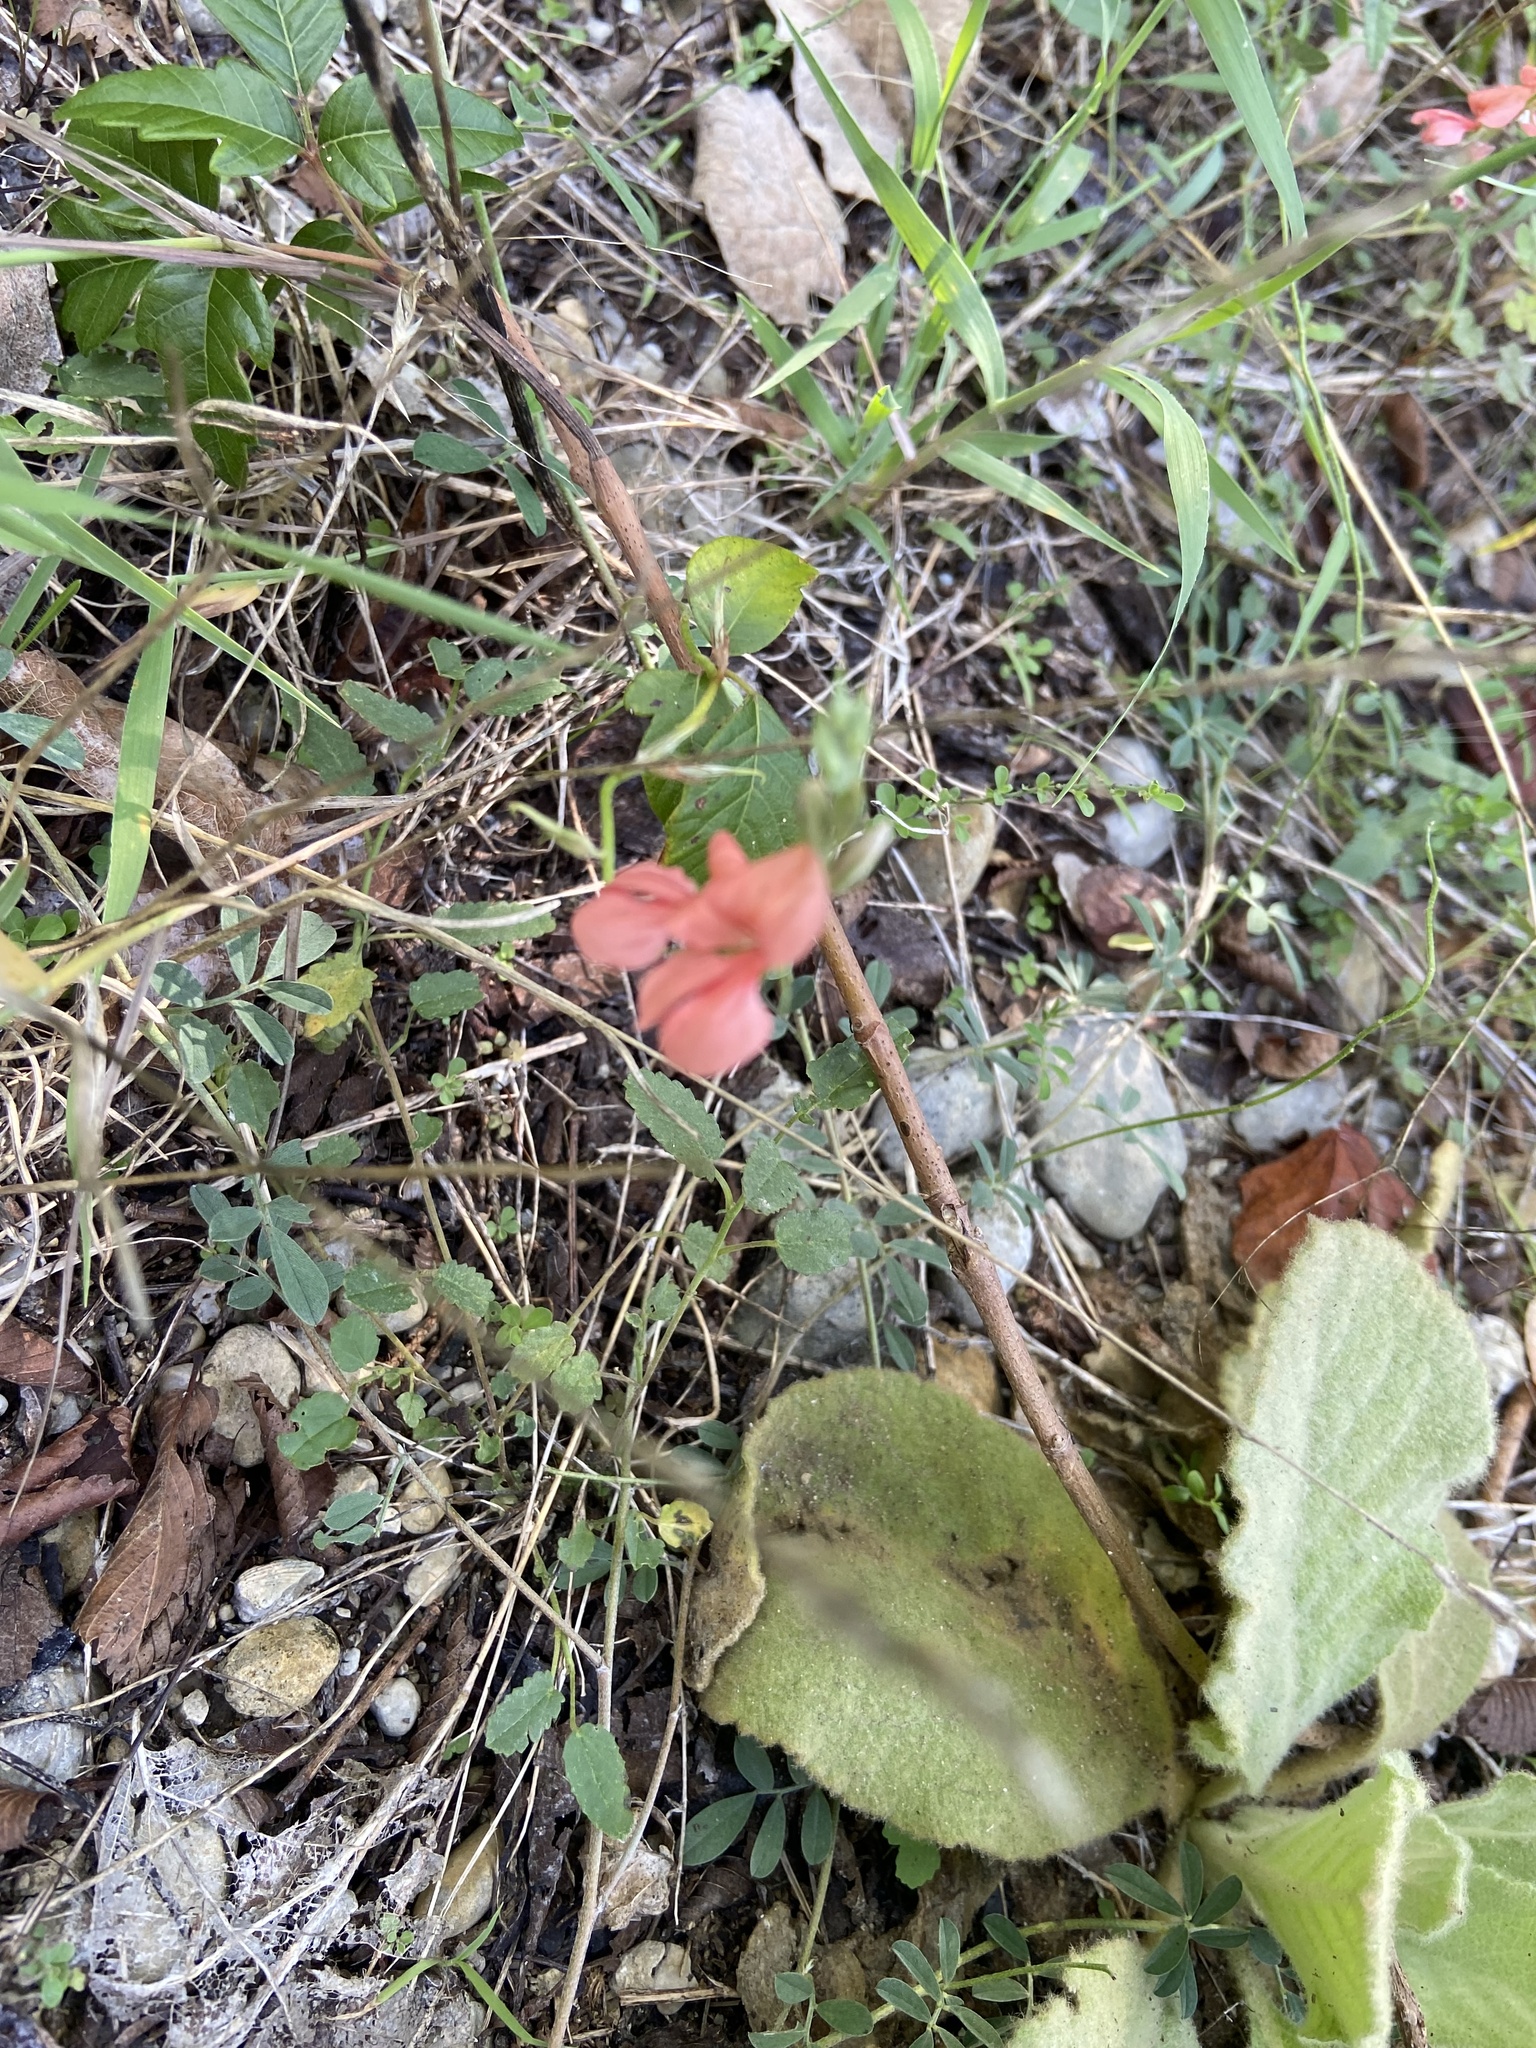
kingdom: Plantae
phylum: Tracheophyta
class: Magnoliopsida
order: Fabales
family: Fabaceae
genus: Indigofera
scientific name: Indigofera miniata
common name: Coast indigo
